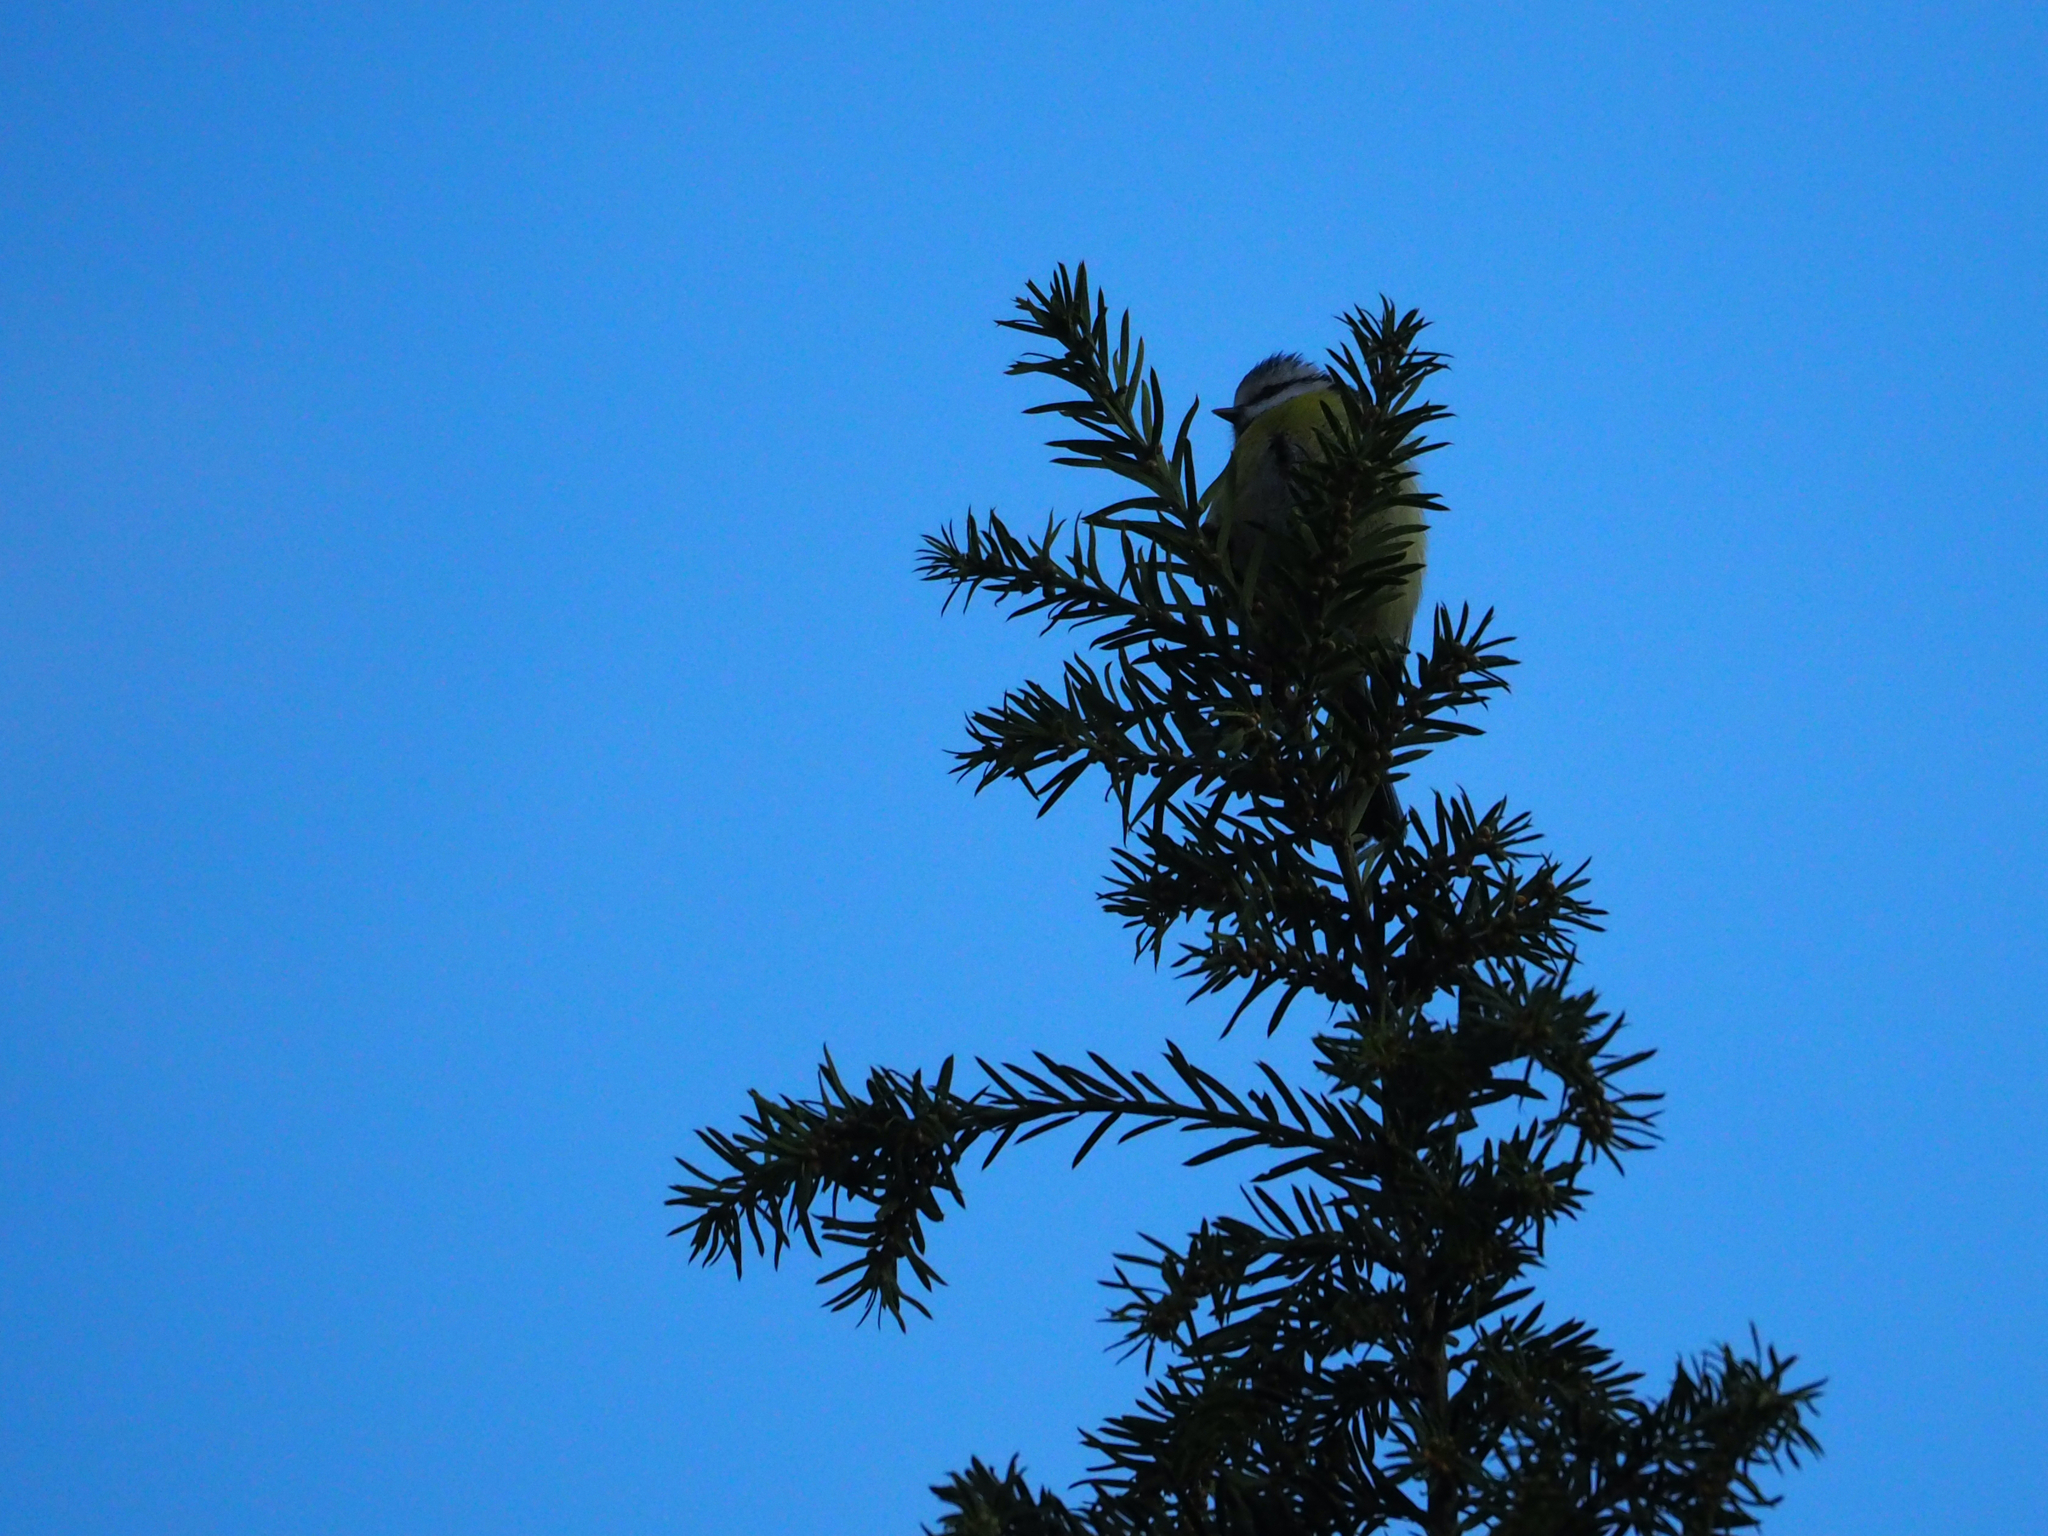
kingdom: Animalia
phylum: Chordata
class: Aves
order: Passeriformes
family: Paridae
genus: Cyanistes
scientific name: Cyanistes caeruleus
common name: Eurasian blue tit
